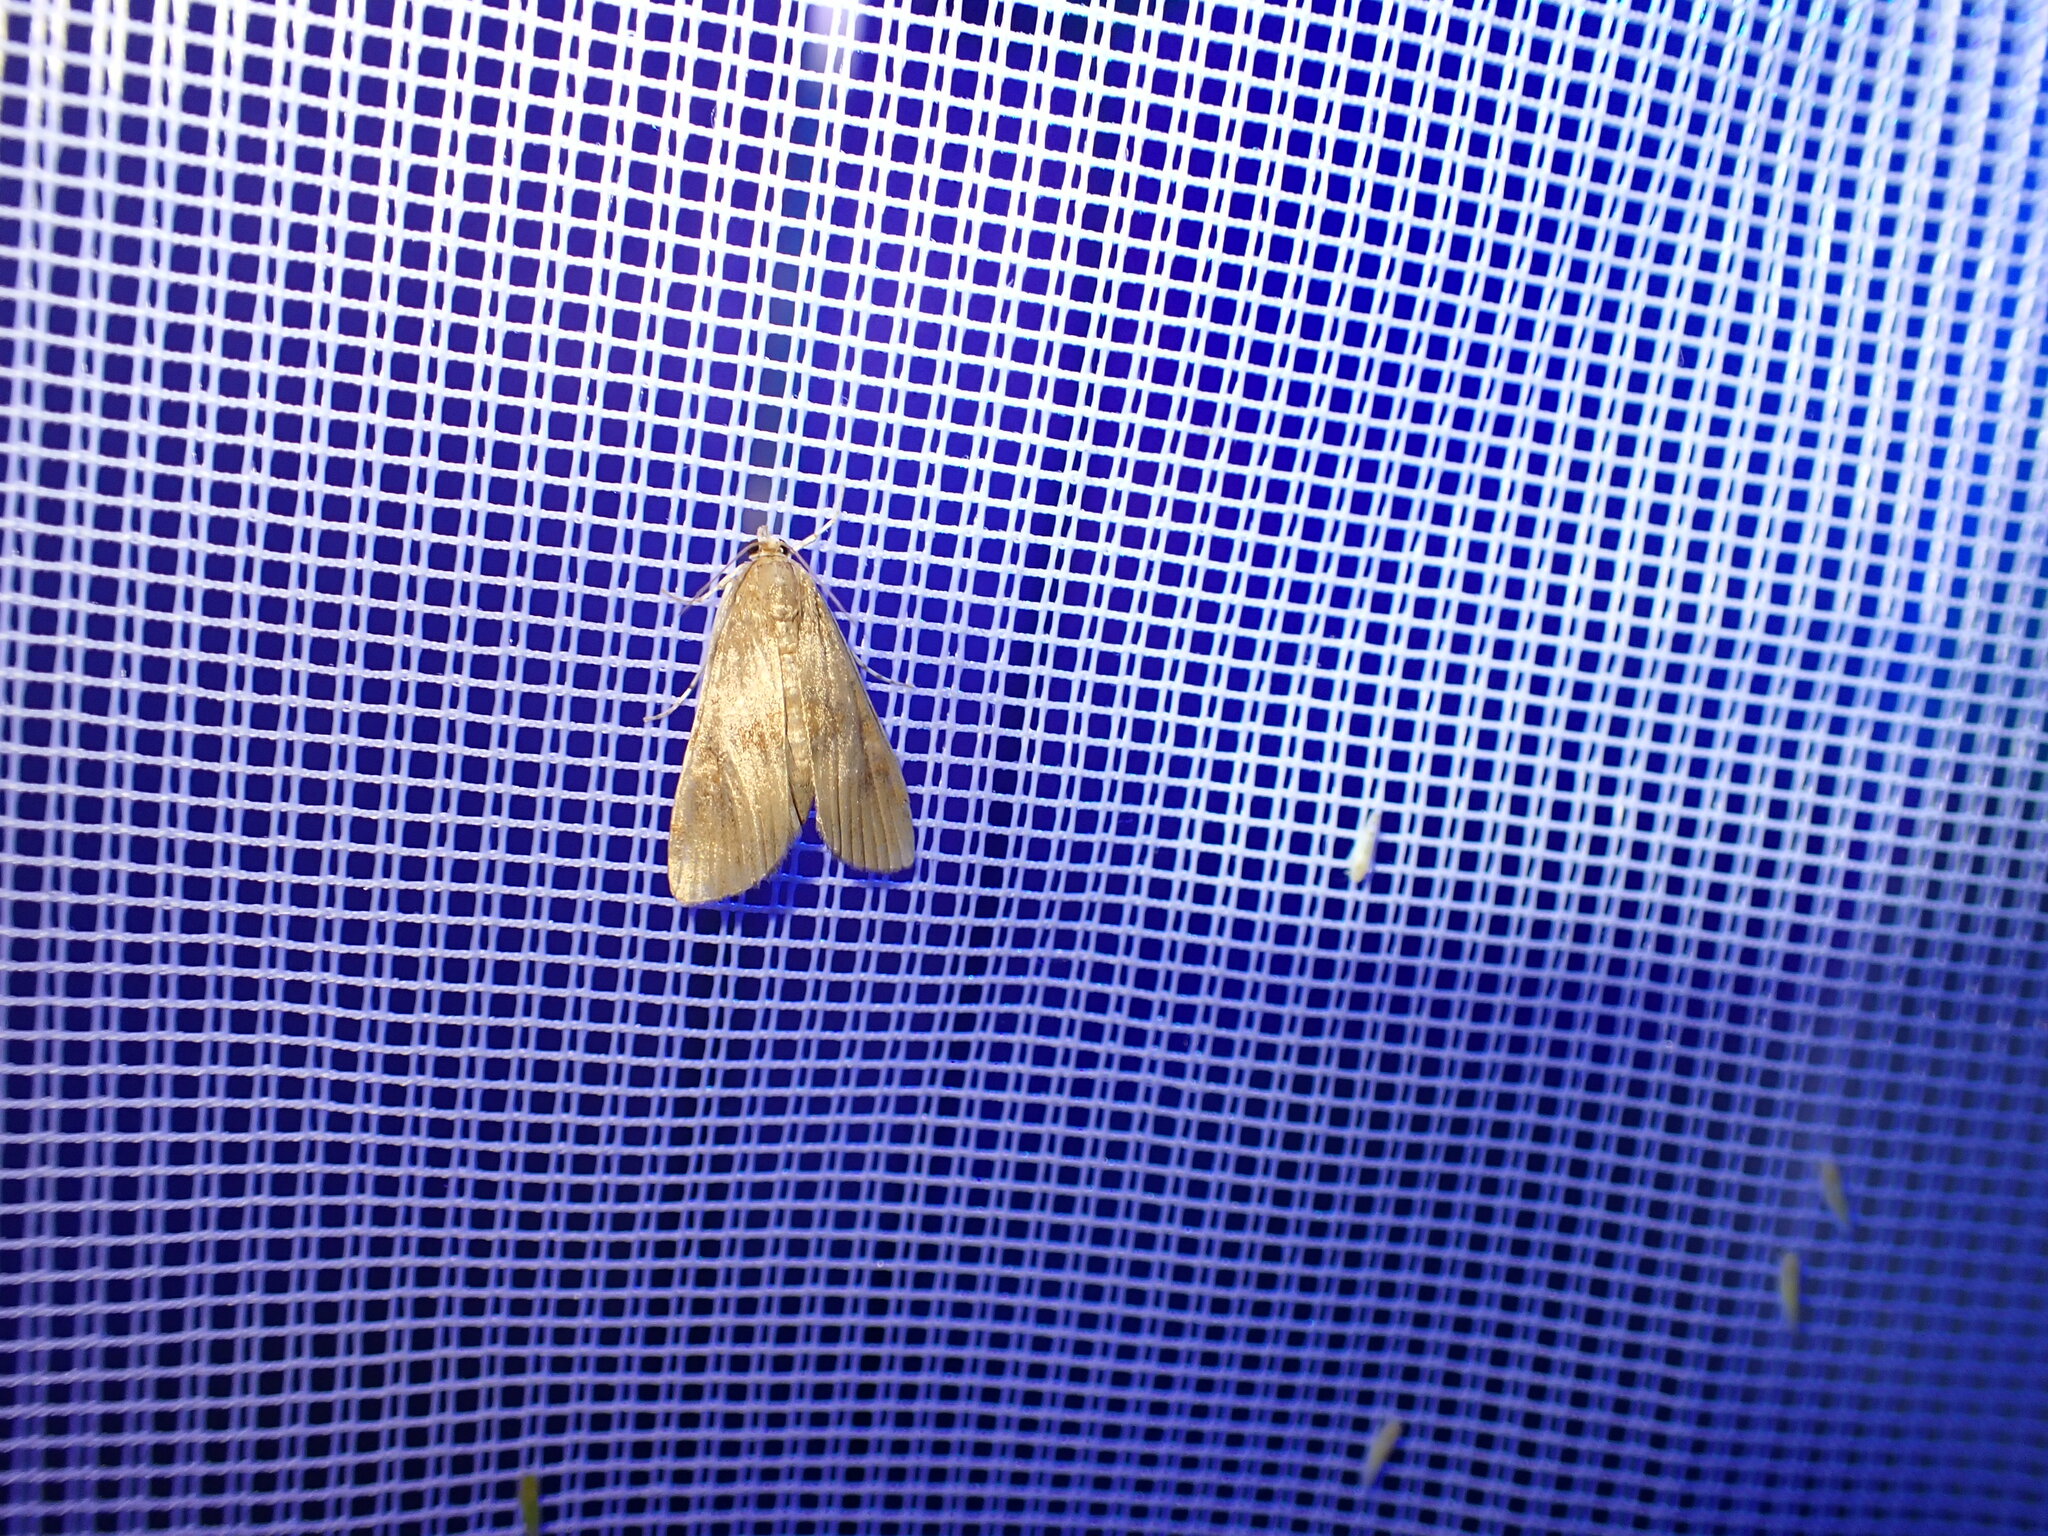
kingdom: Animalia
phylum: Arthropoda
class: Insecta
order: Lepidoptera
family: Crambidae
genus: Elophila
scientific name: Elophila gyralis
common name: Waterlily borer moth
